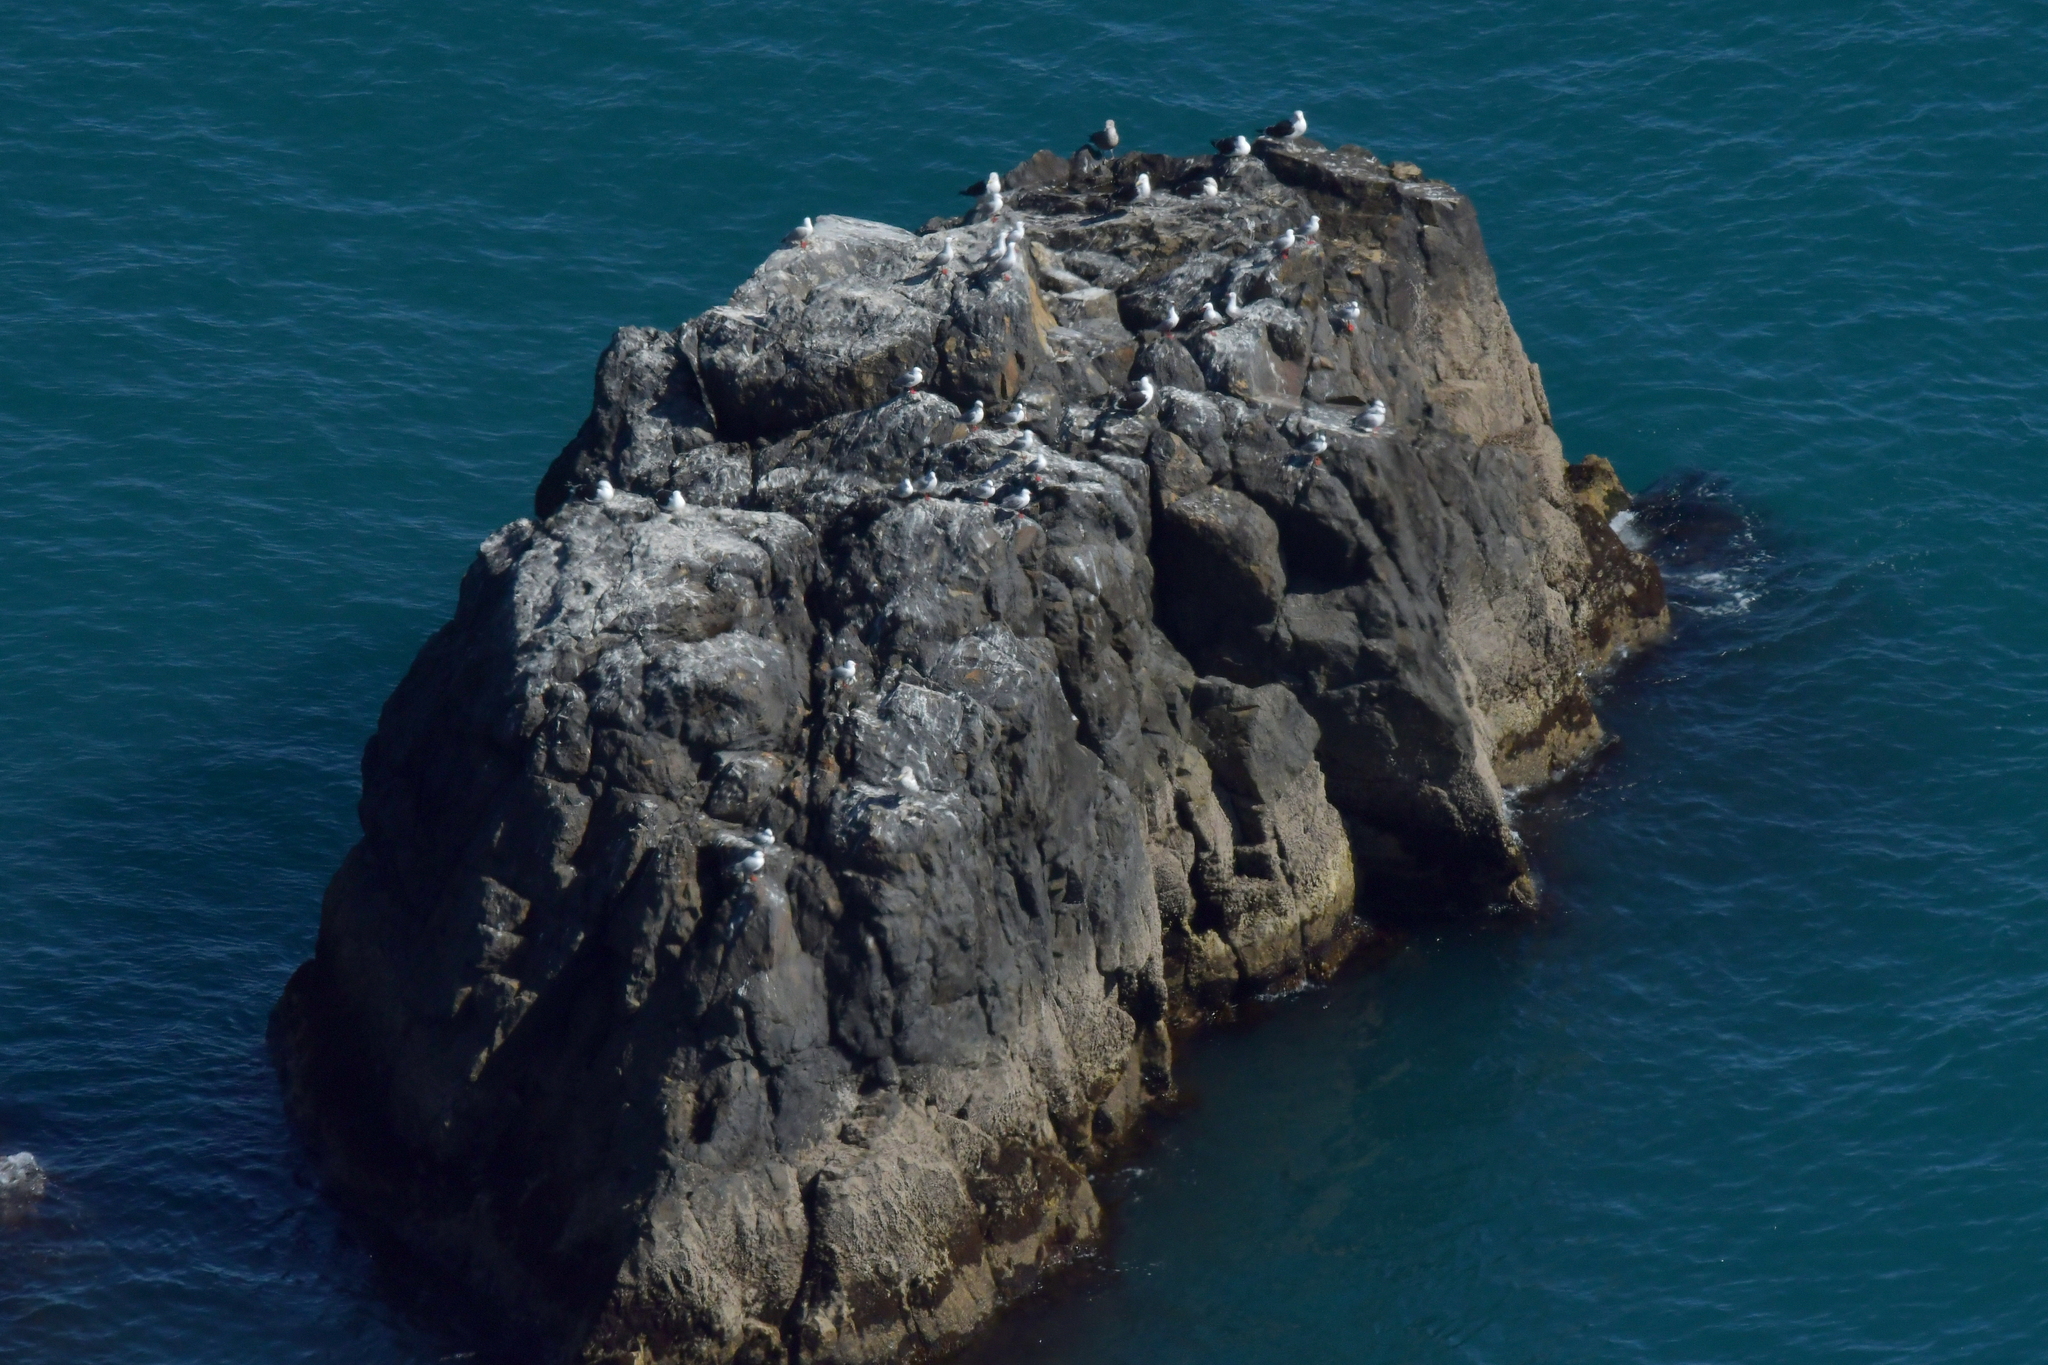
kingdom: Animalia
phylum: Chordata
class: Aves
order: Charadriiformes
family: Laridae
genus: Chroicocephalus
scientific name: Chroicocephalus novaehollandiae
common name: Silver gull
